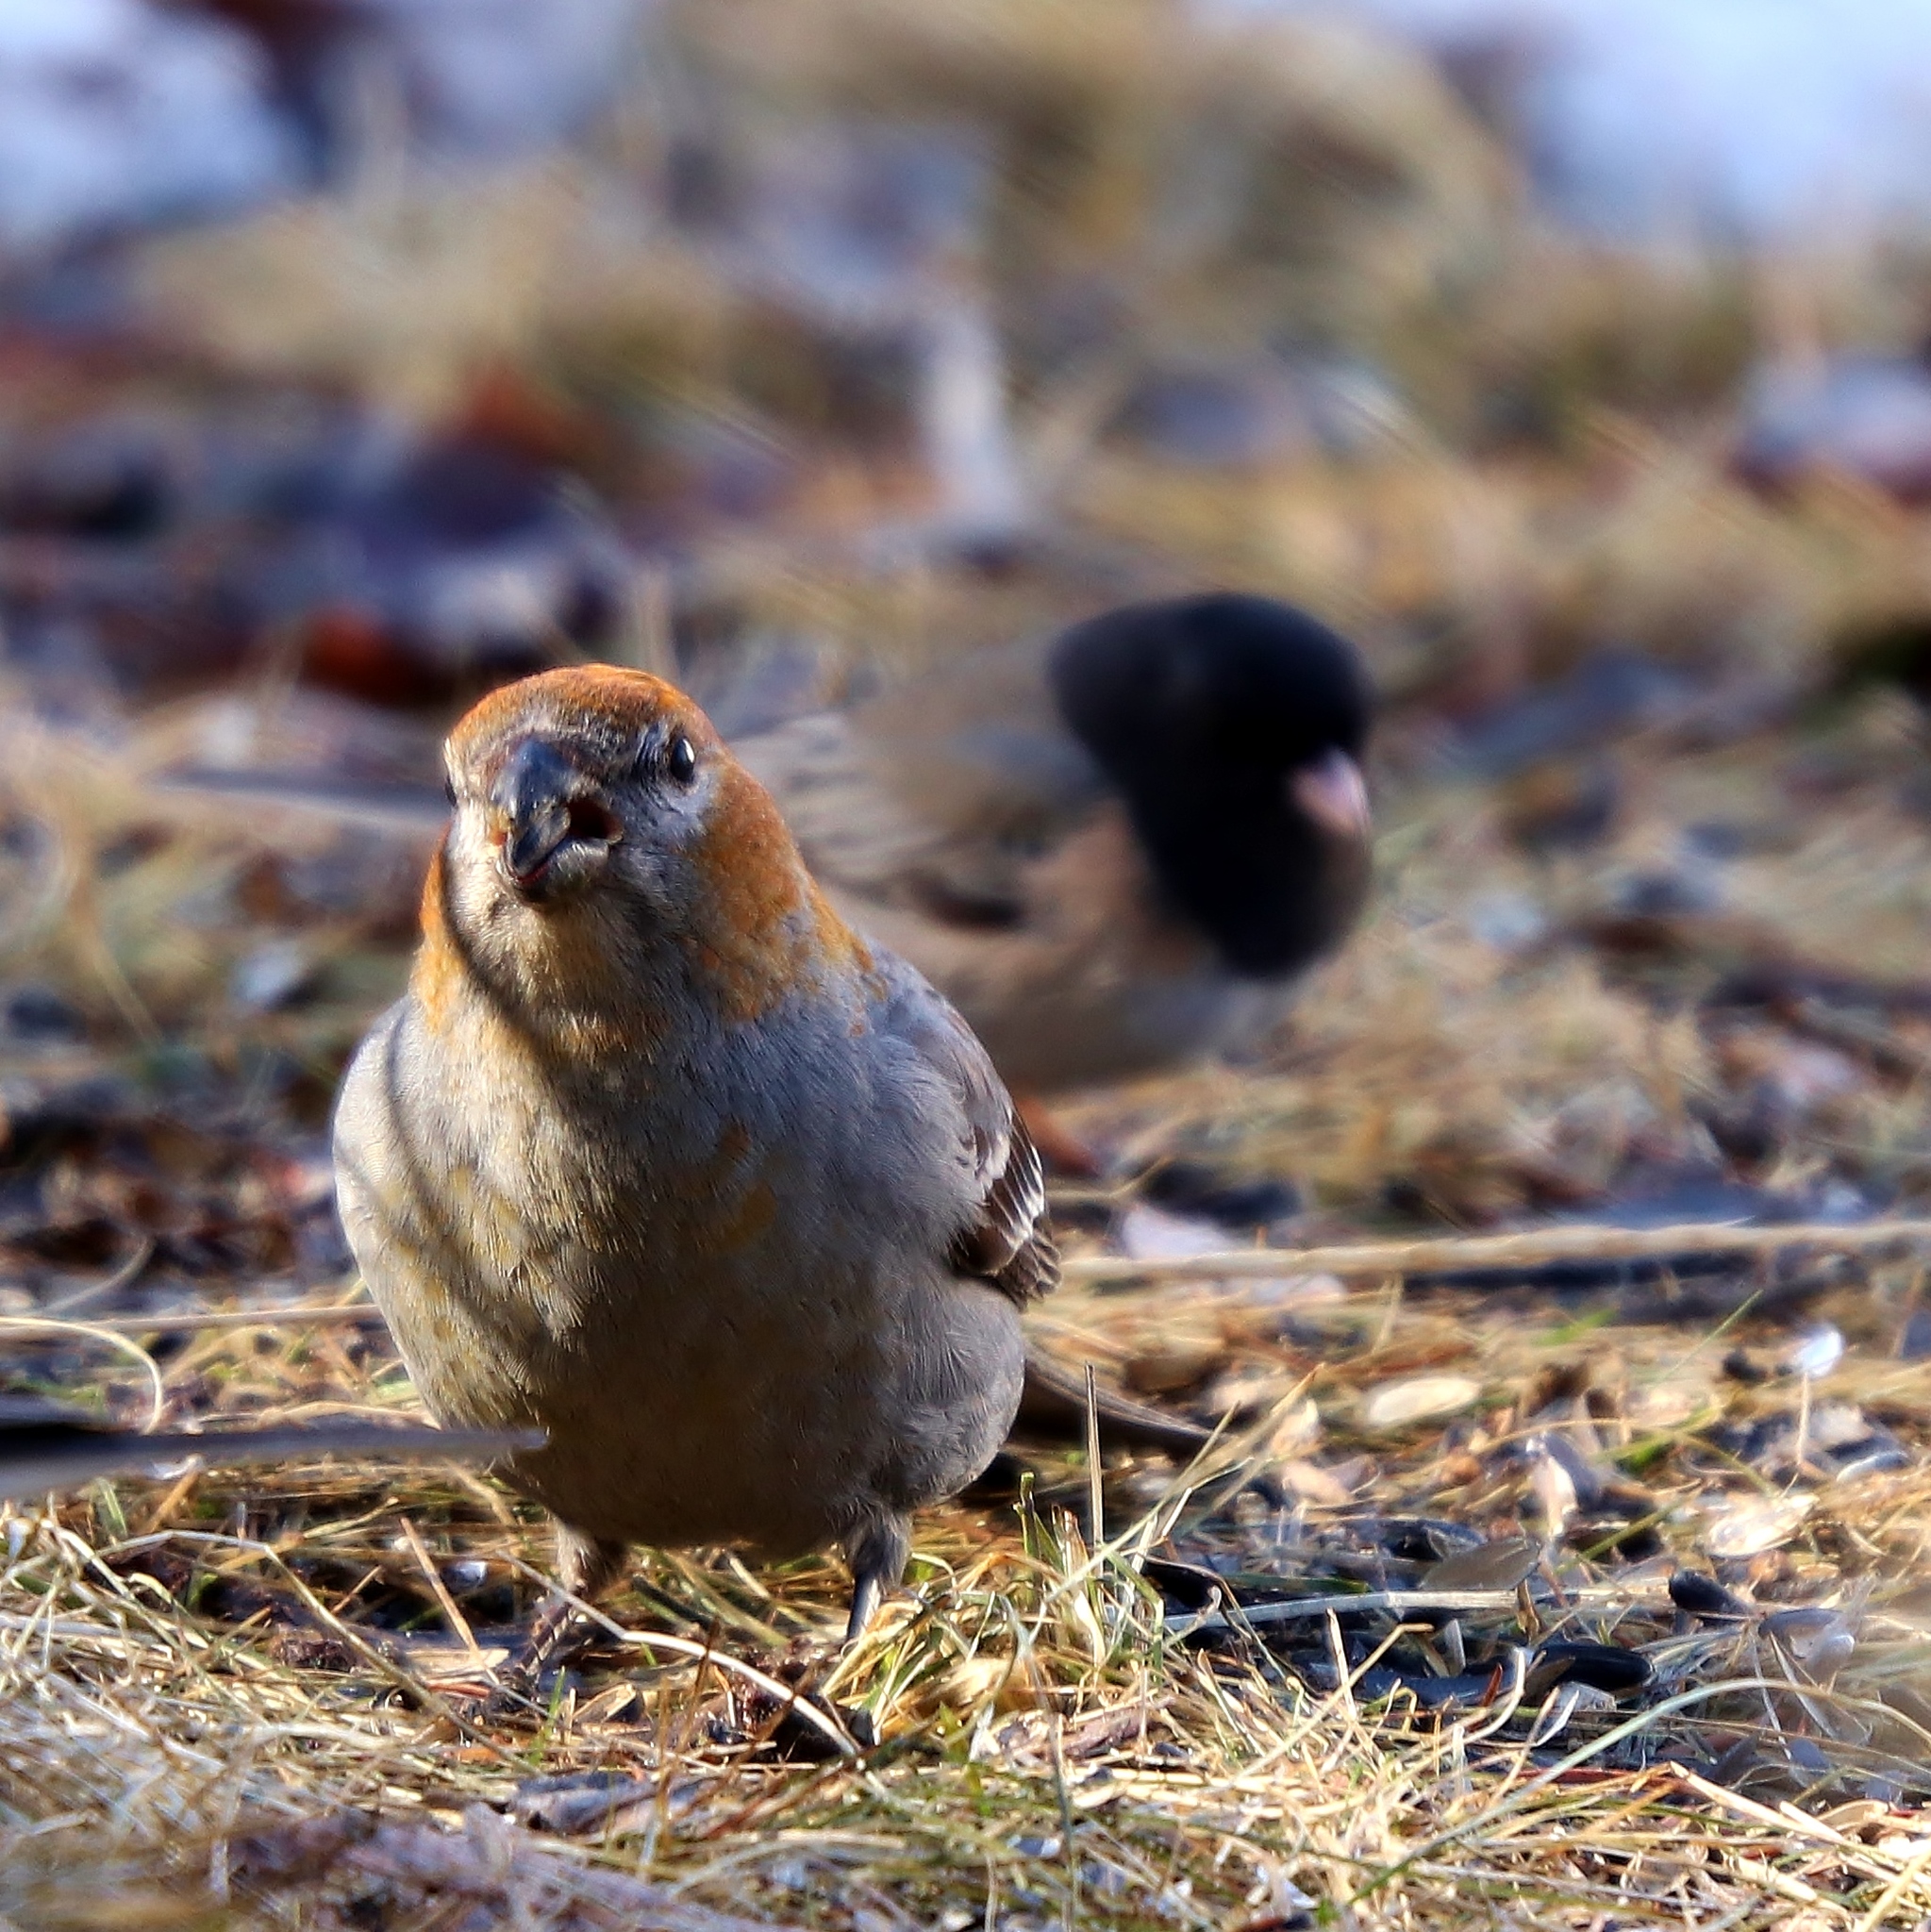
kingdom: Animalia
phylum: Chordata
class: Aves
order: Passeriformes
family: Fringillidae
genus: Pinicola
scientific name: Pinicola enucleator
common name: Pine grosbeak
